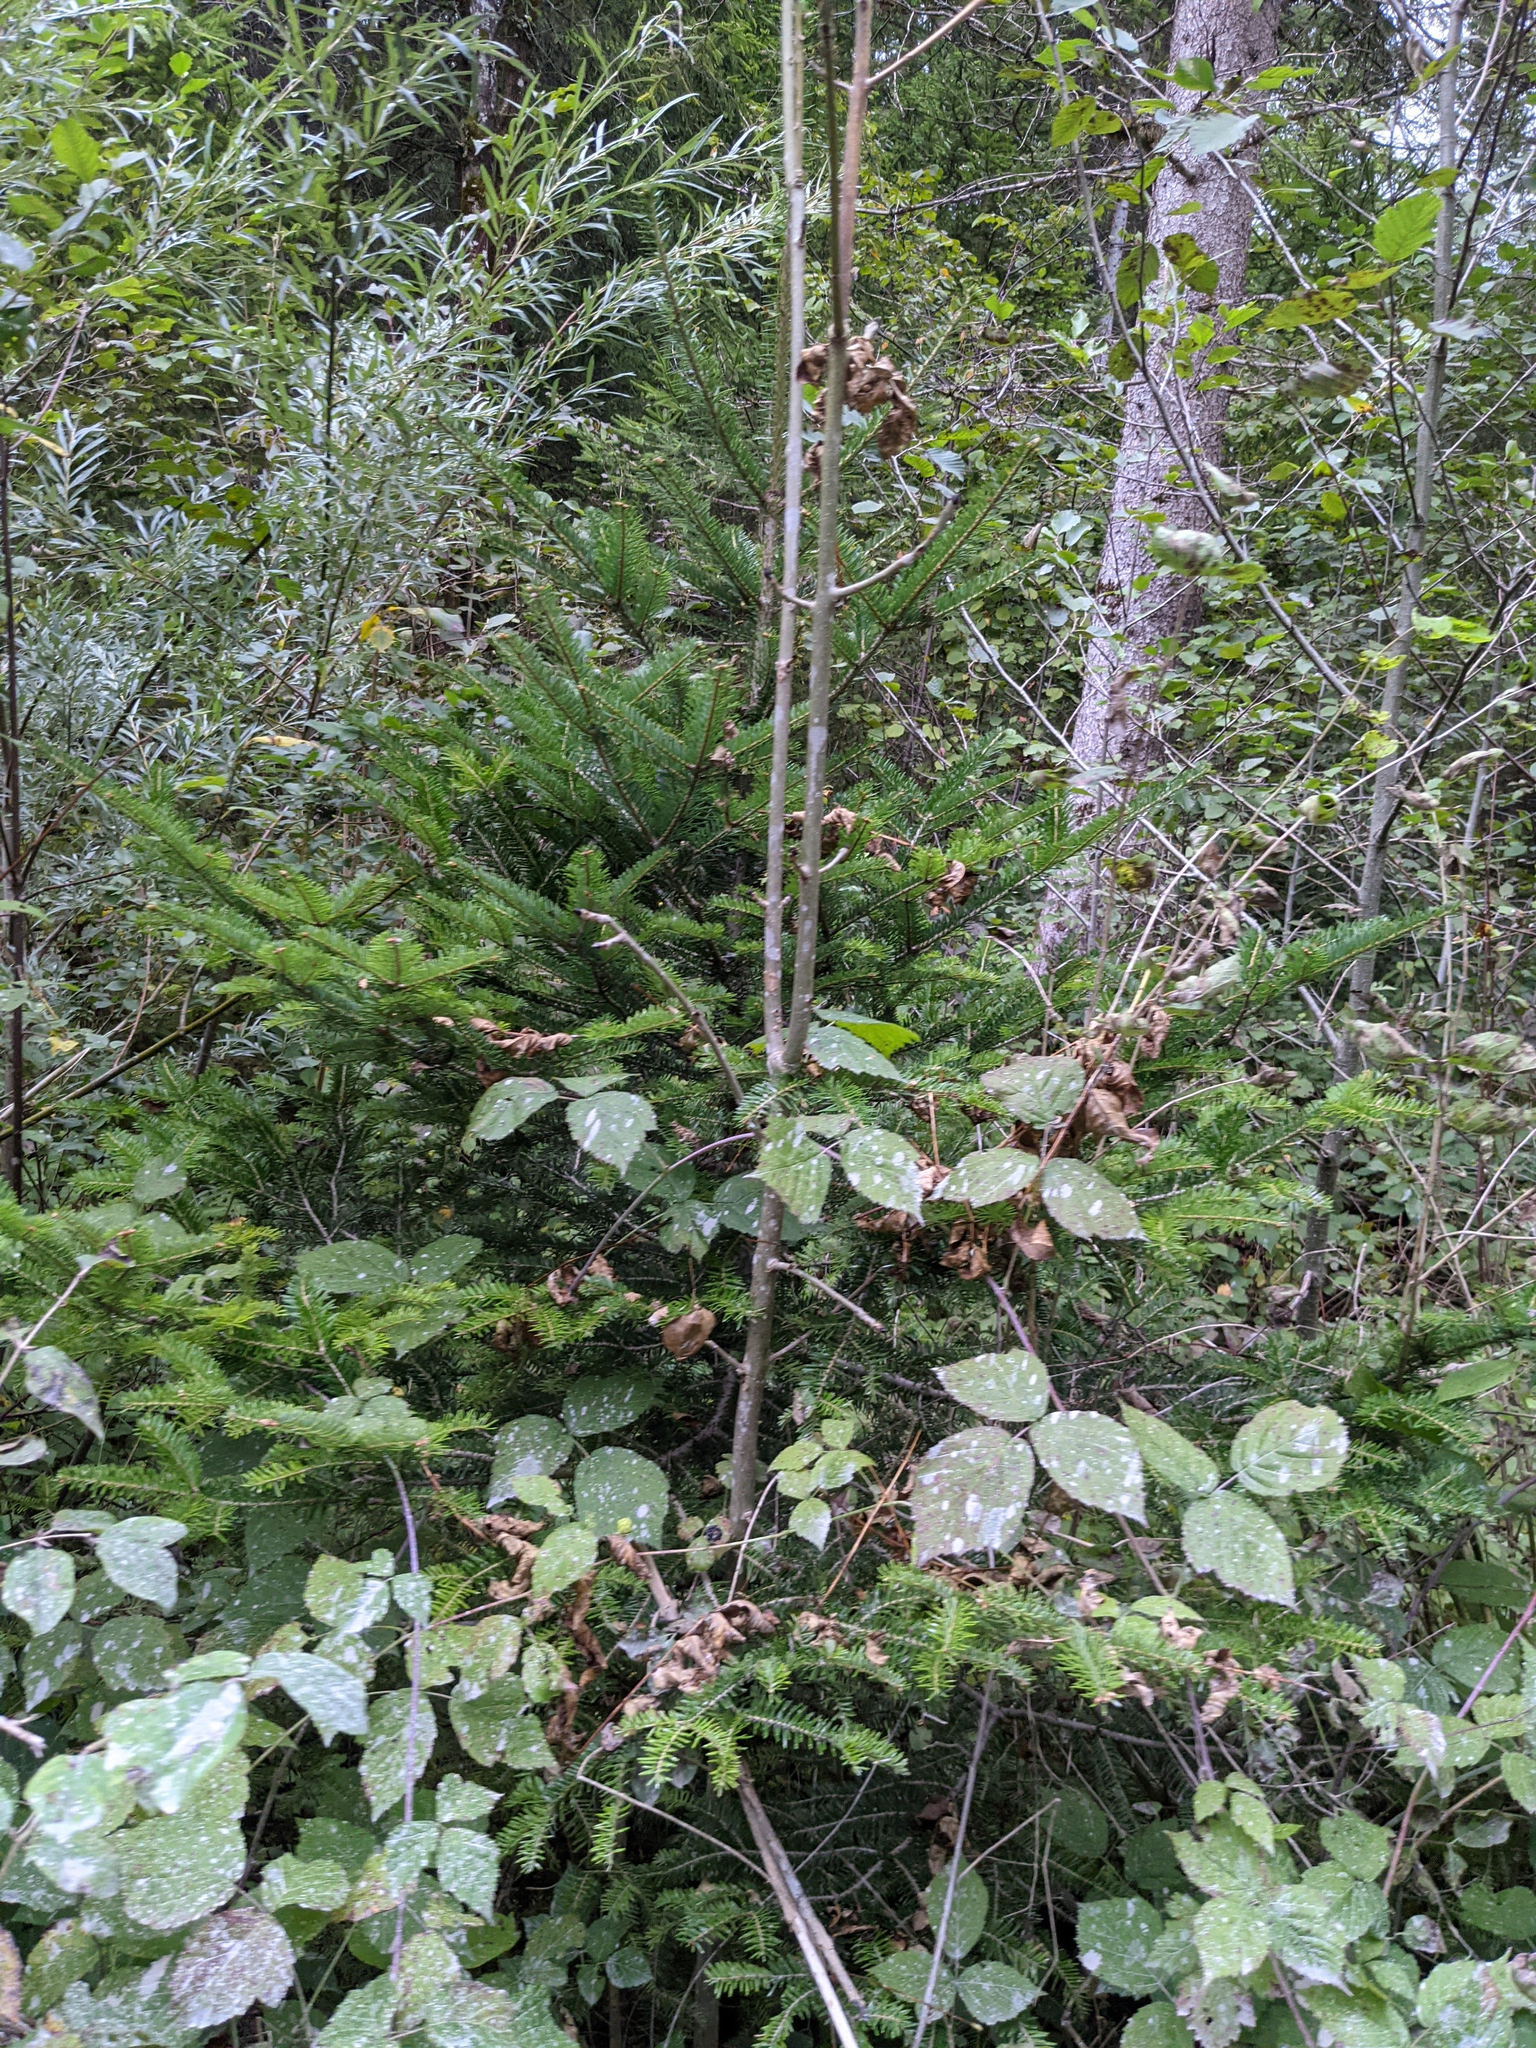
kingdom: Plantae
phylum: Tracheophyta
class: Pinopsida
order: Pinales
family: Pinaceae
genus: Abies
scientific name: Abies alba
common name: Silver fir
